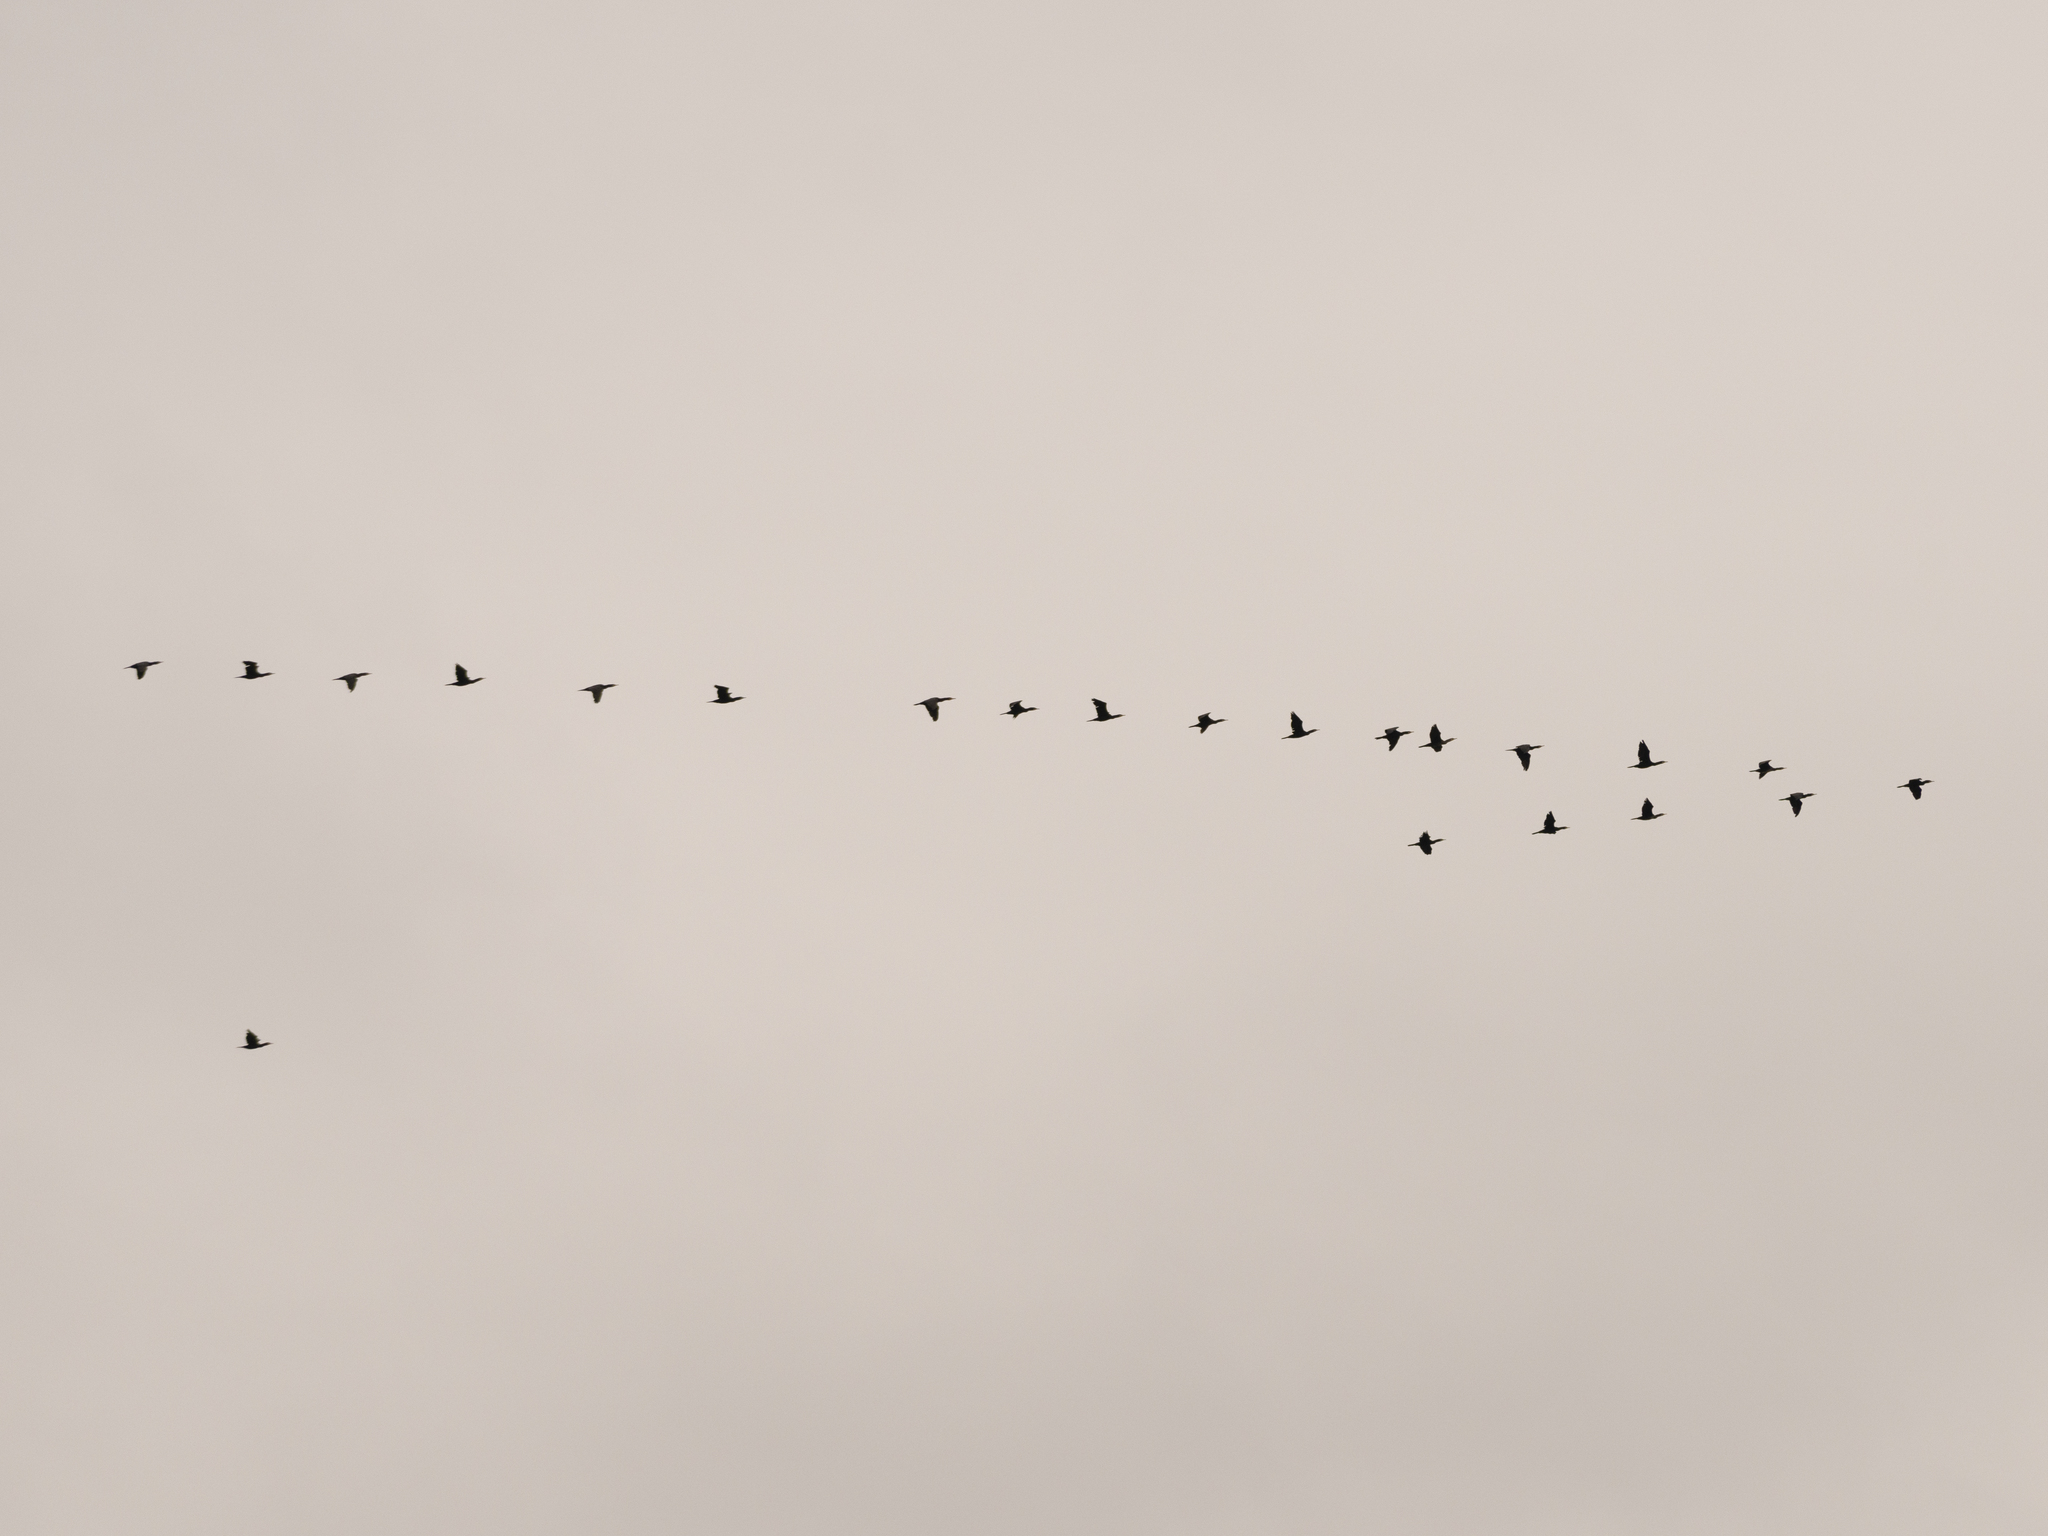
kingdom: Animalia
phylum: Chordata
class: Aves
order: Suliformes
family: Phalacrocoracidae
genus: Phalacrocorax
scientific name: Phalacrocorax carbo
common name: Great cormorant
